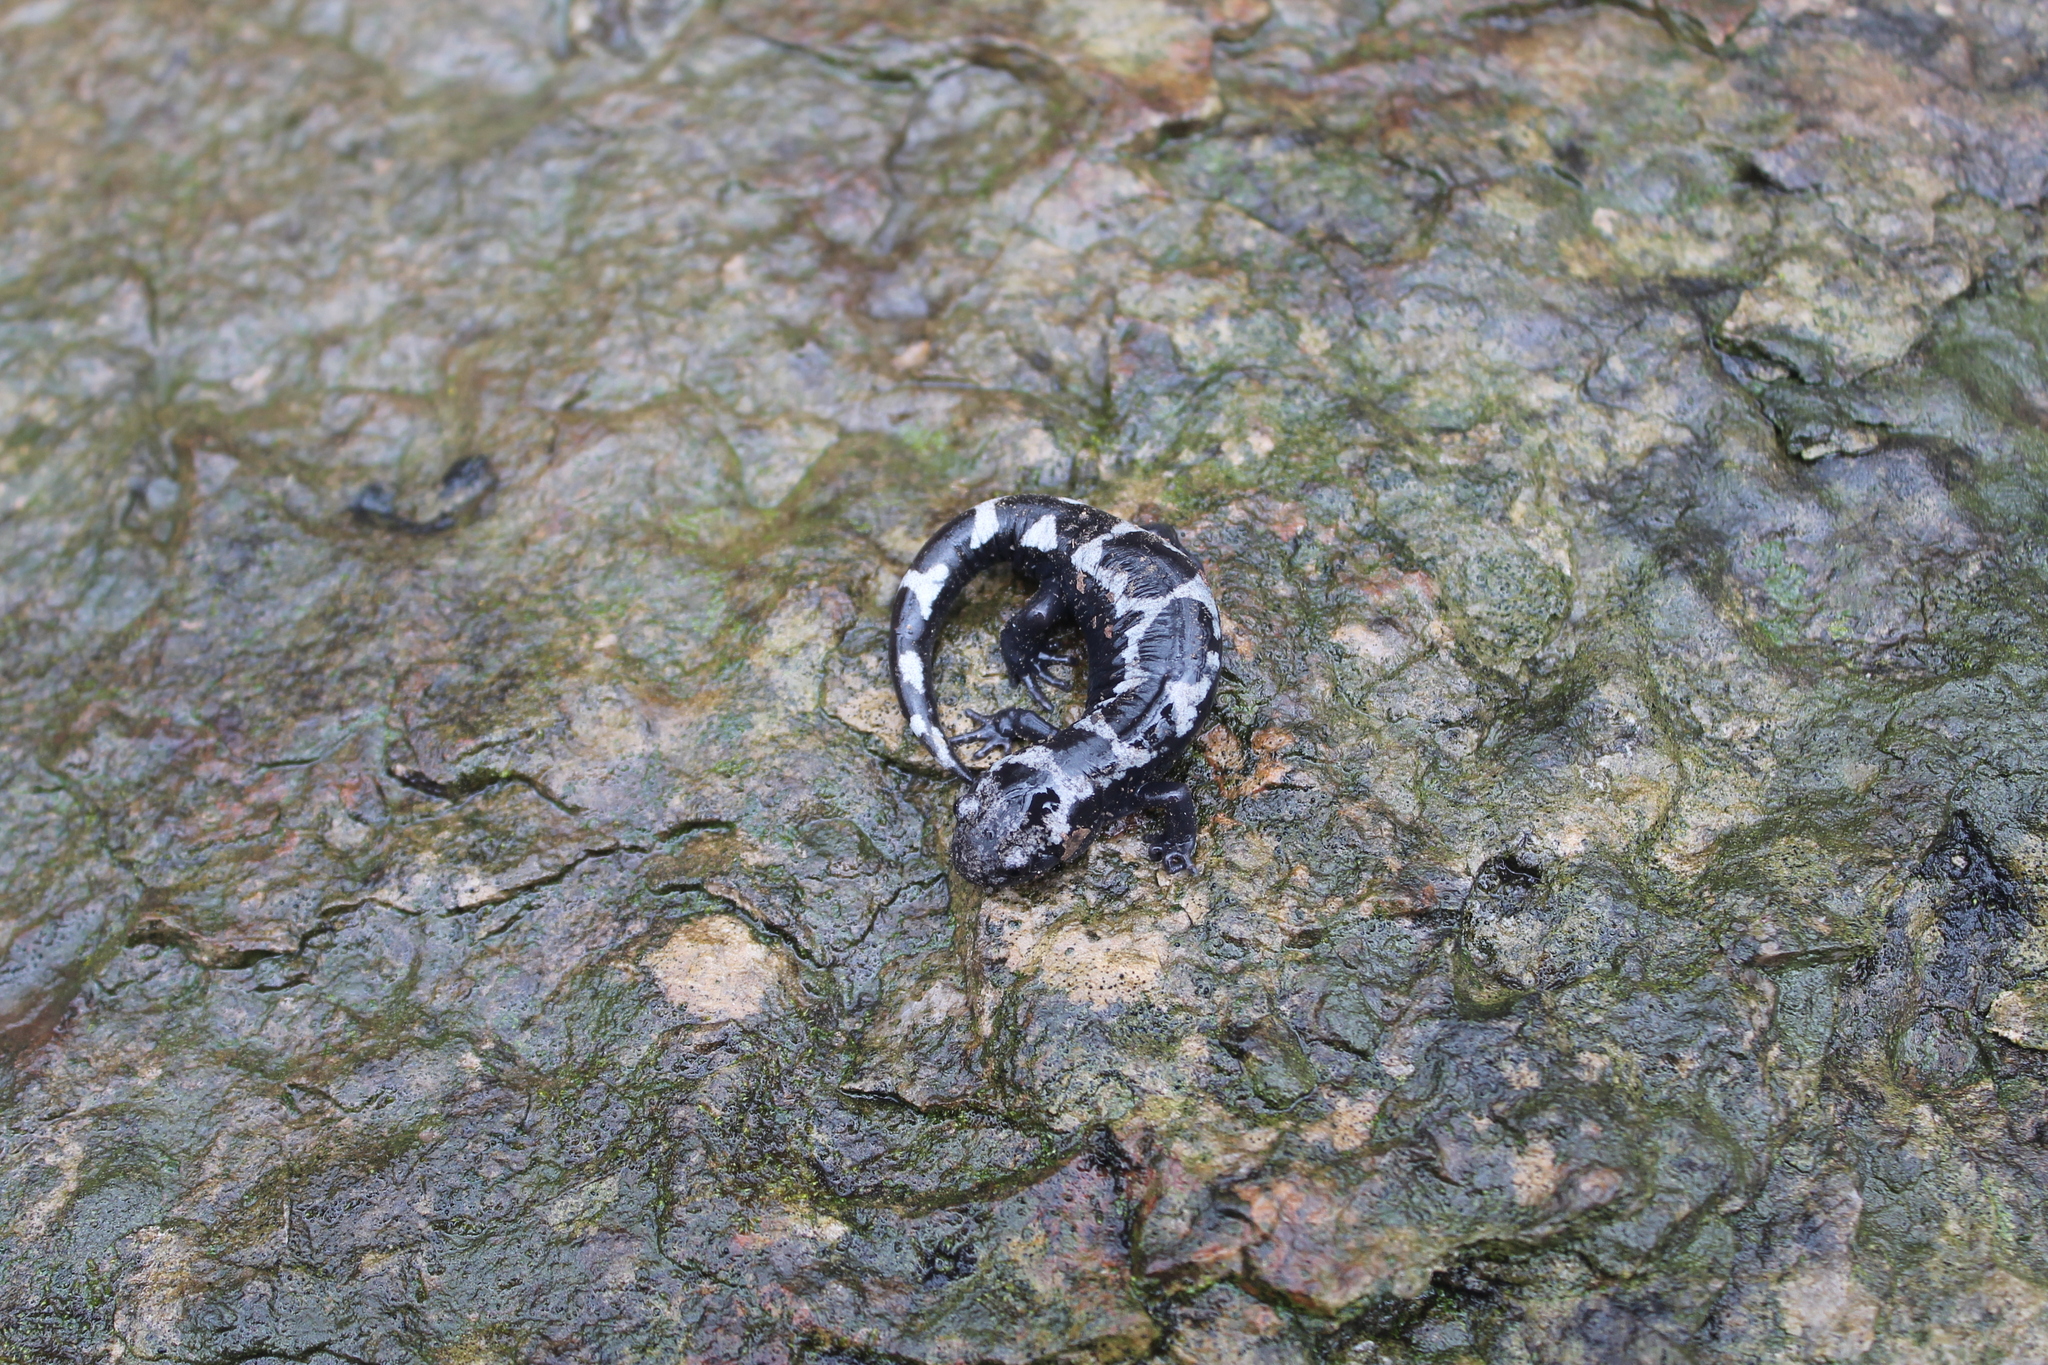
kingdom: Animalia
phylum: Chordata
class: Amphibia
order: Caudata
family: Ambystomatidae
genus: Ambystoma
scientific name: Ambystoma opacum
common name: Marbled salamander
